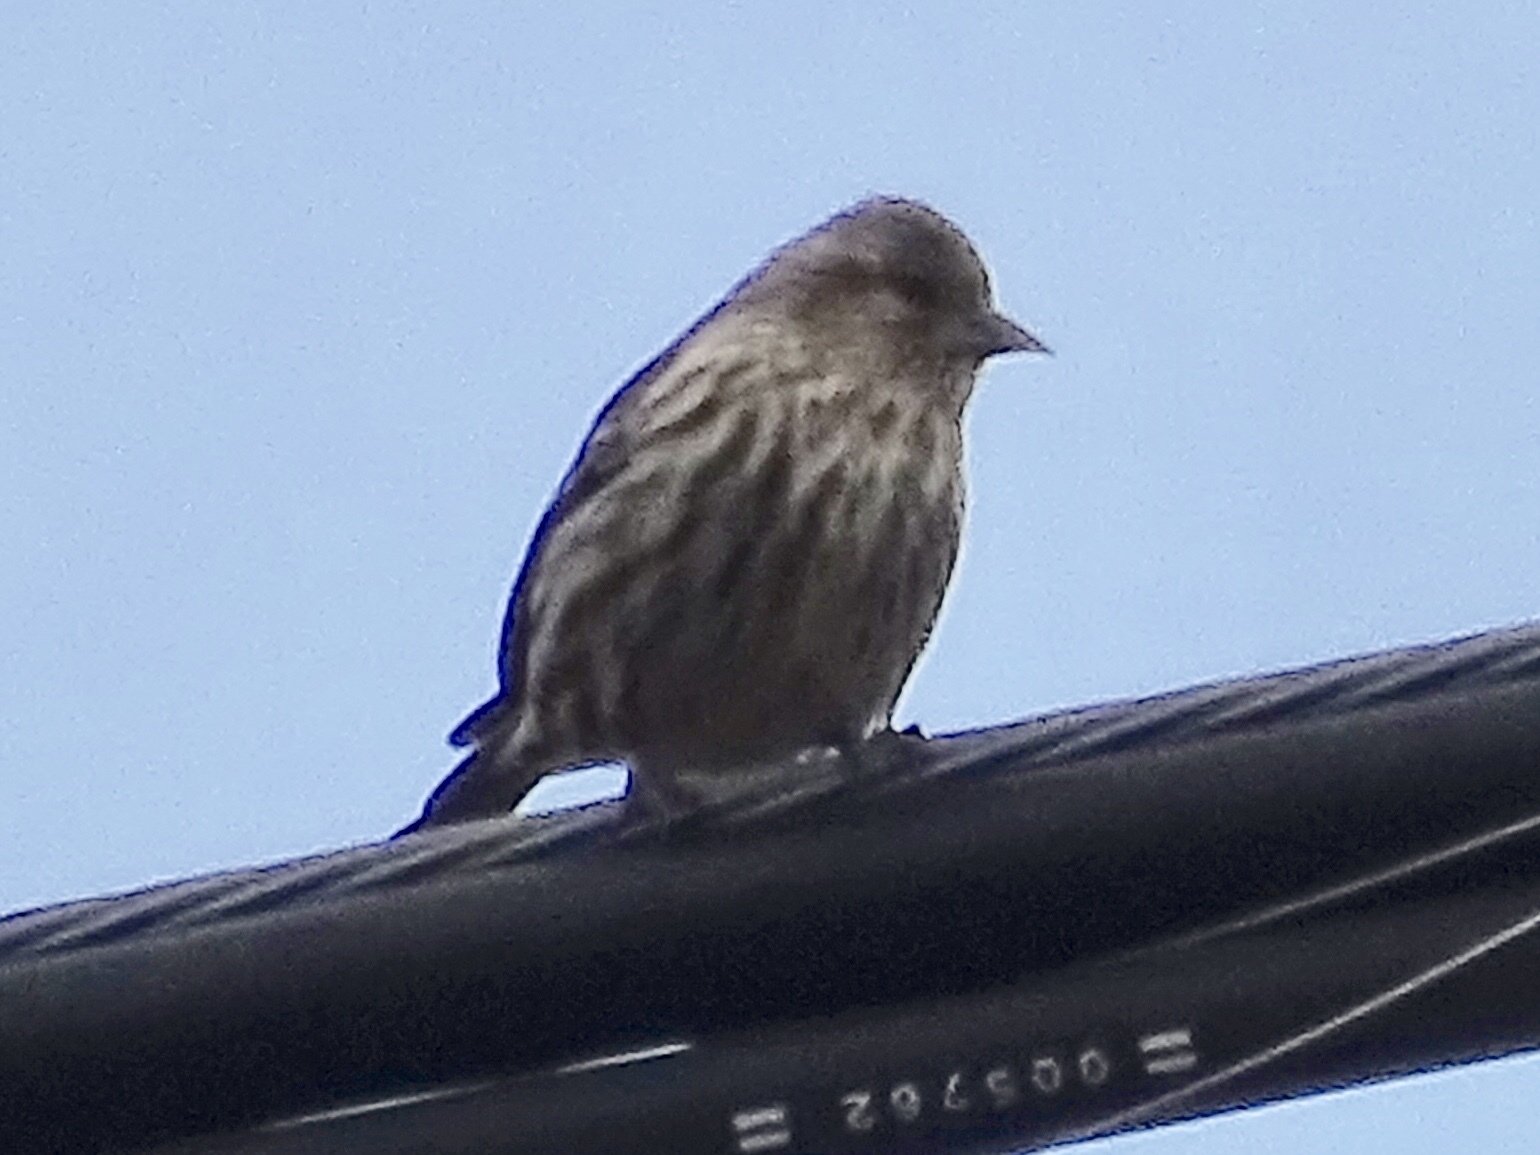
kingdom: Animalia
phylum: Chordata
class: Aves
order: Passeriformes
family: Fringillidae
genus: Spinus
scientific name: Spinus pinus
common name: Pine siskin
